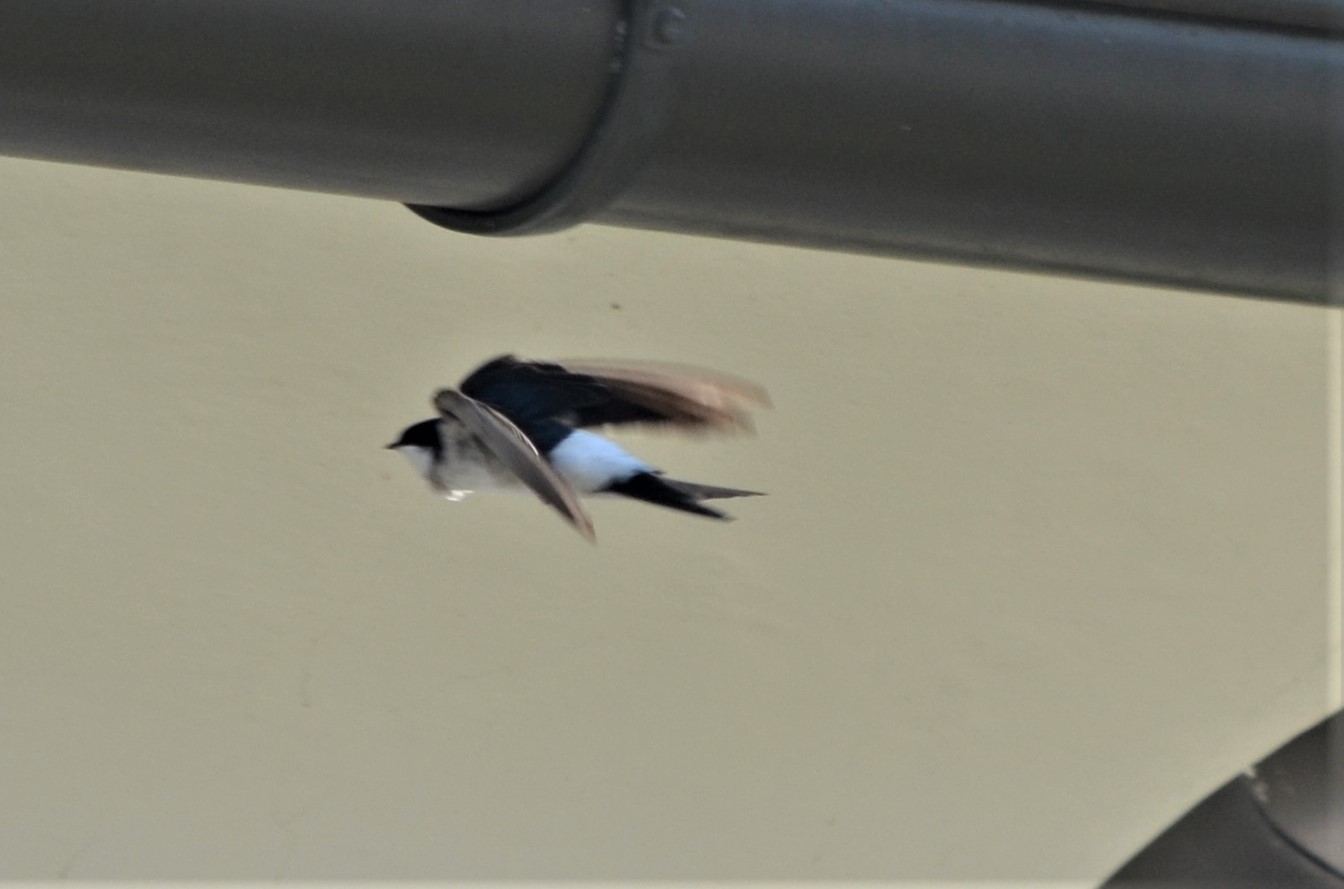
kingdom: Animalia
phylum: Chordata
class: Aves
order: Passeriformes
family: Hirundinidae
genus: Delichon
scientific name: Delichon urbicum
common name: Common house martin
